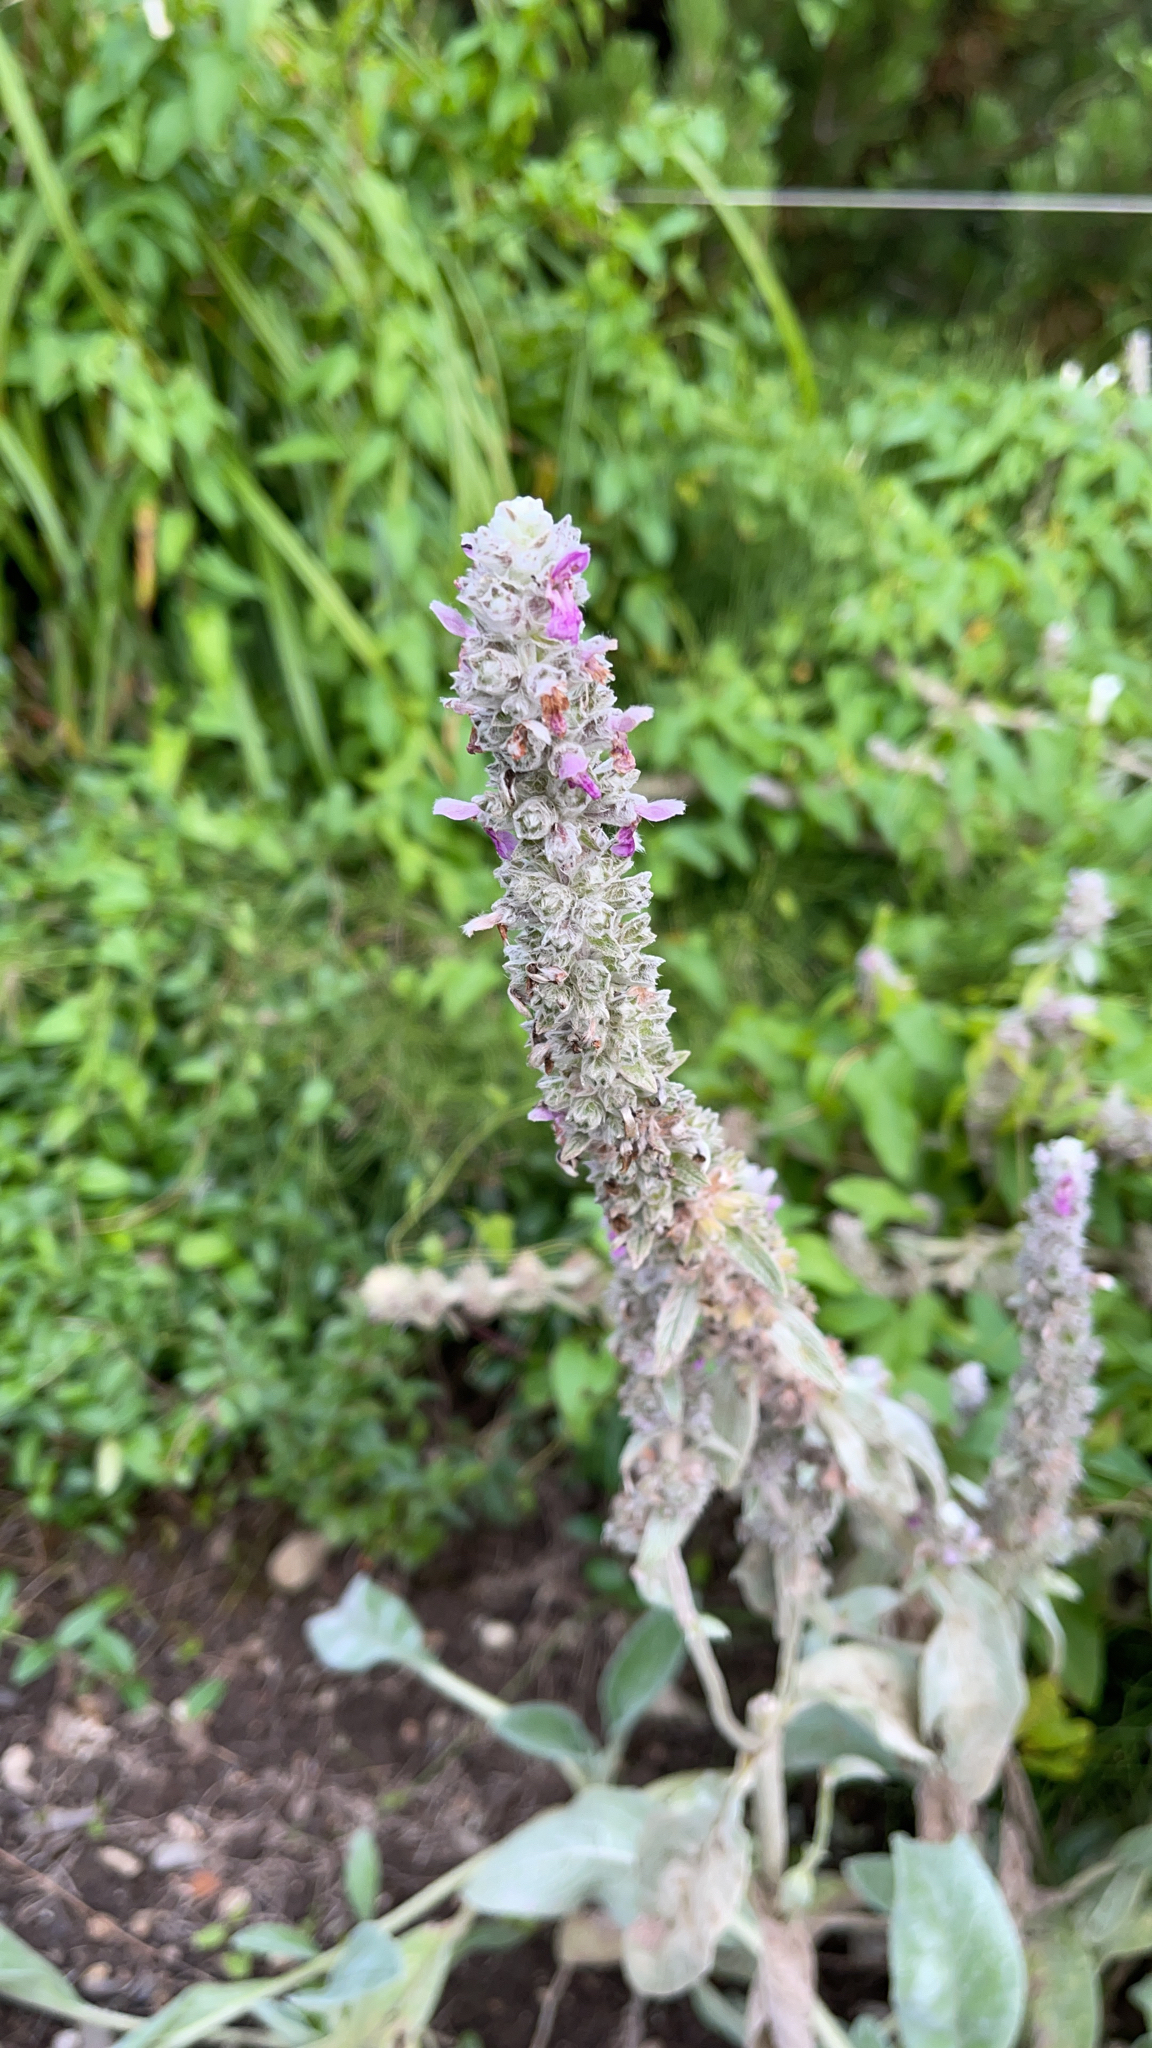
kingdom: Plantae
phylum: Tracheophyta
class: Magnoliopsida
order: Lamiales
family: Lamiaceae
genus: Stachys
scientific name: Stachys byzantina
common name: Lamb's-ear
